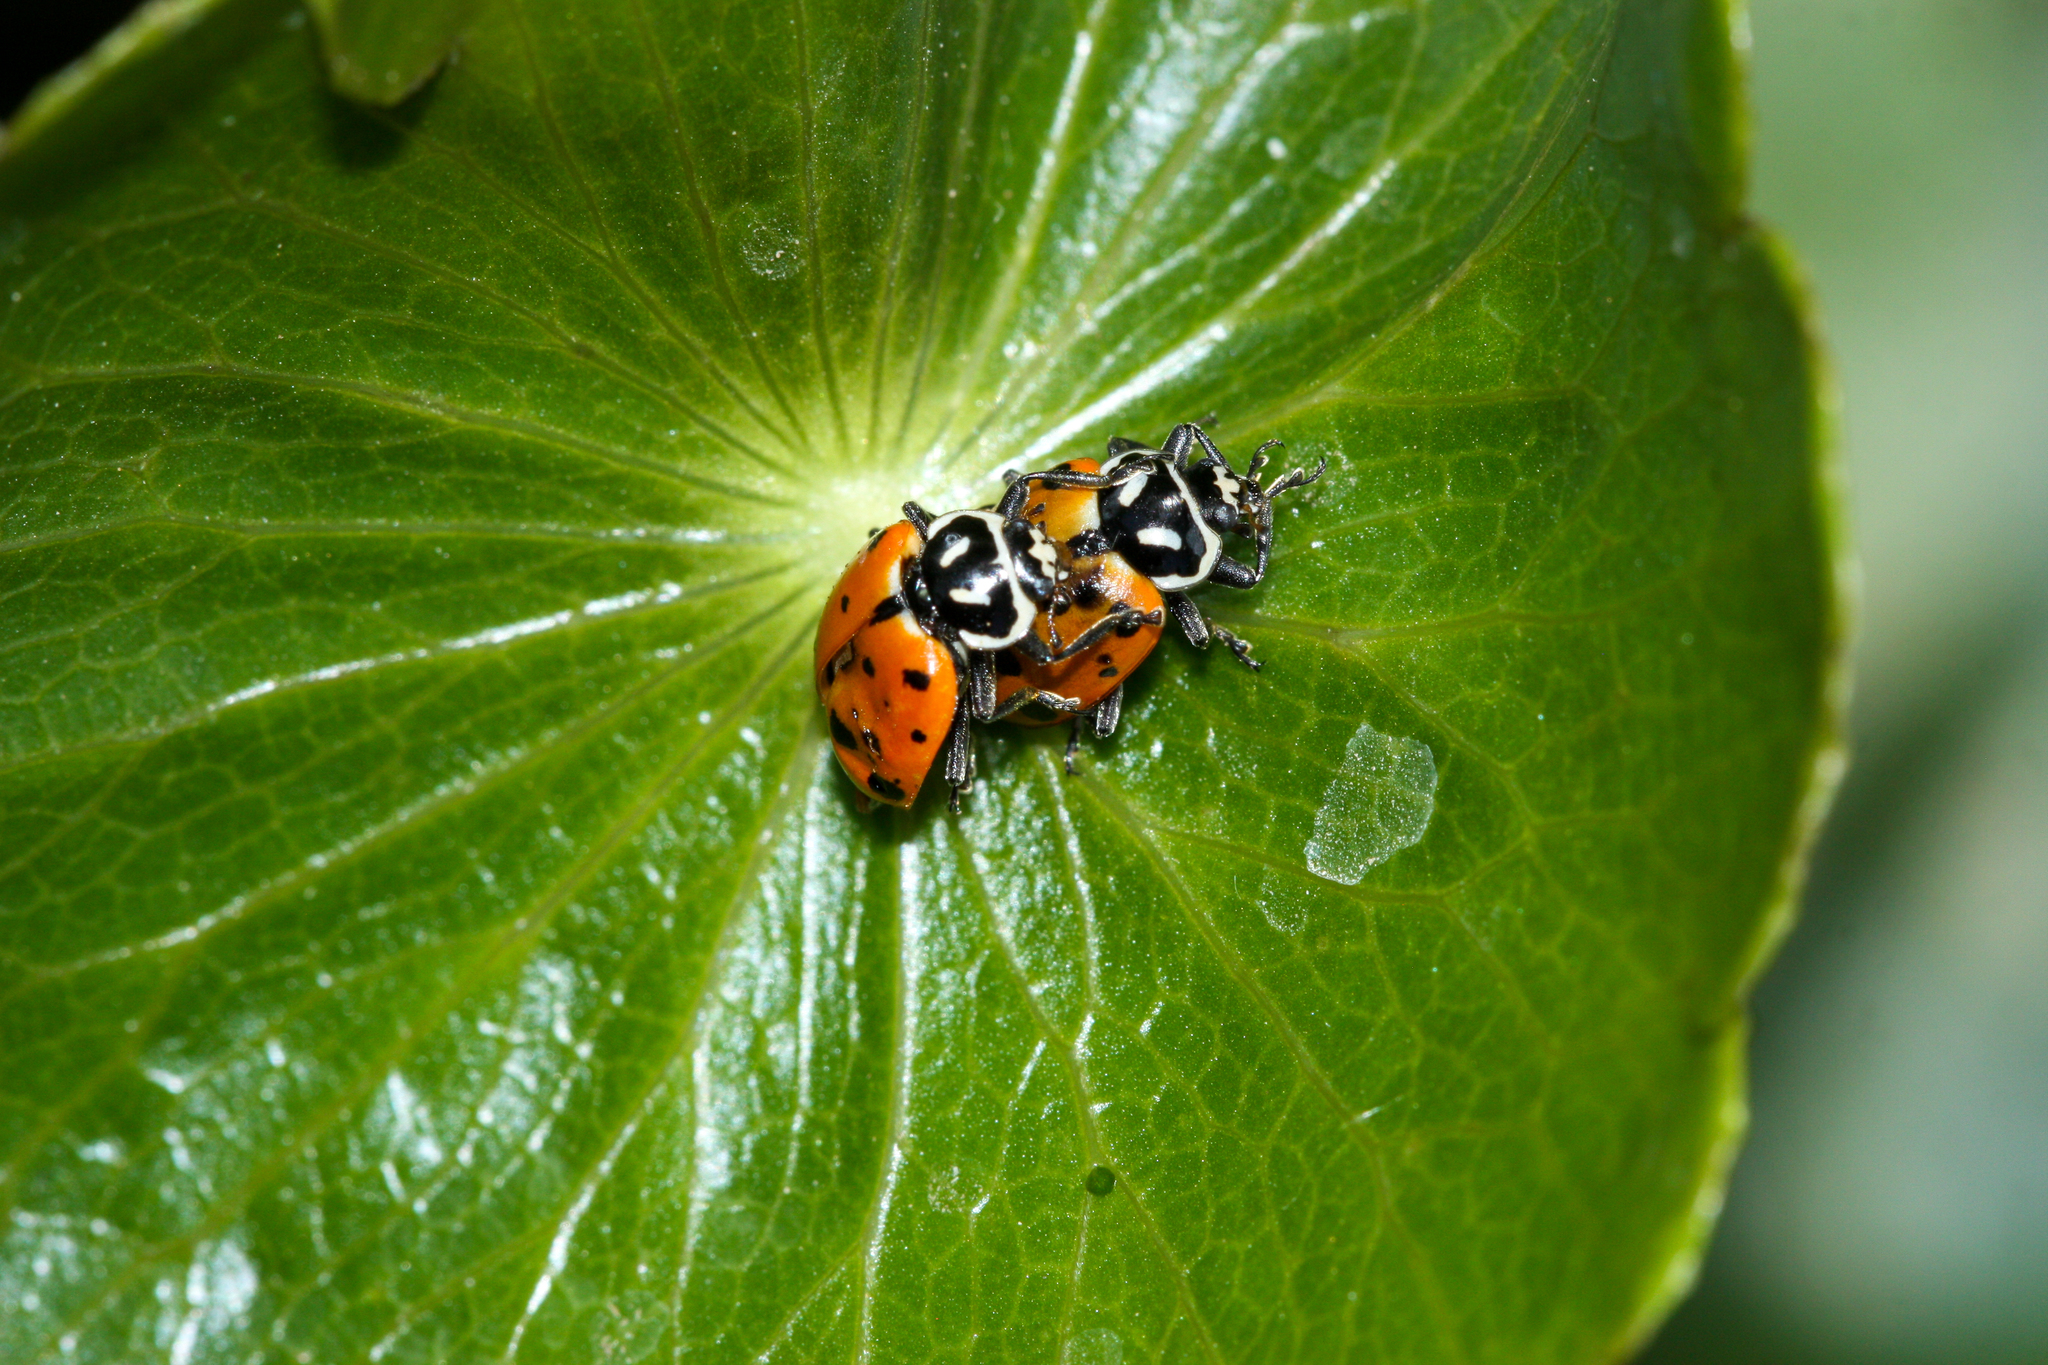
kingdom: Animalia
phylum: Arthropoda
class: Insecta
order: Coleoptera
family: Coccinellidae
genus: Hippodamia
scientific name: Hippodamia convergens
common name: Convergent lady beetle
